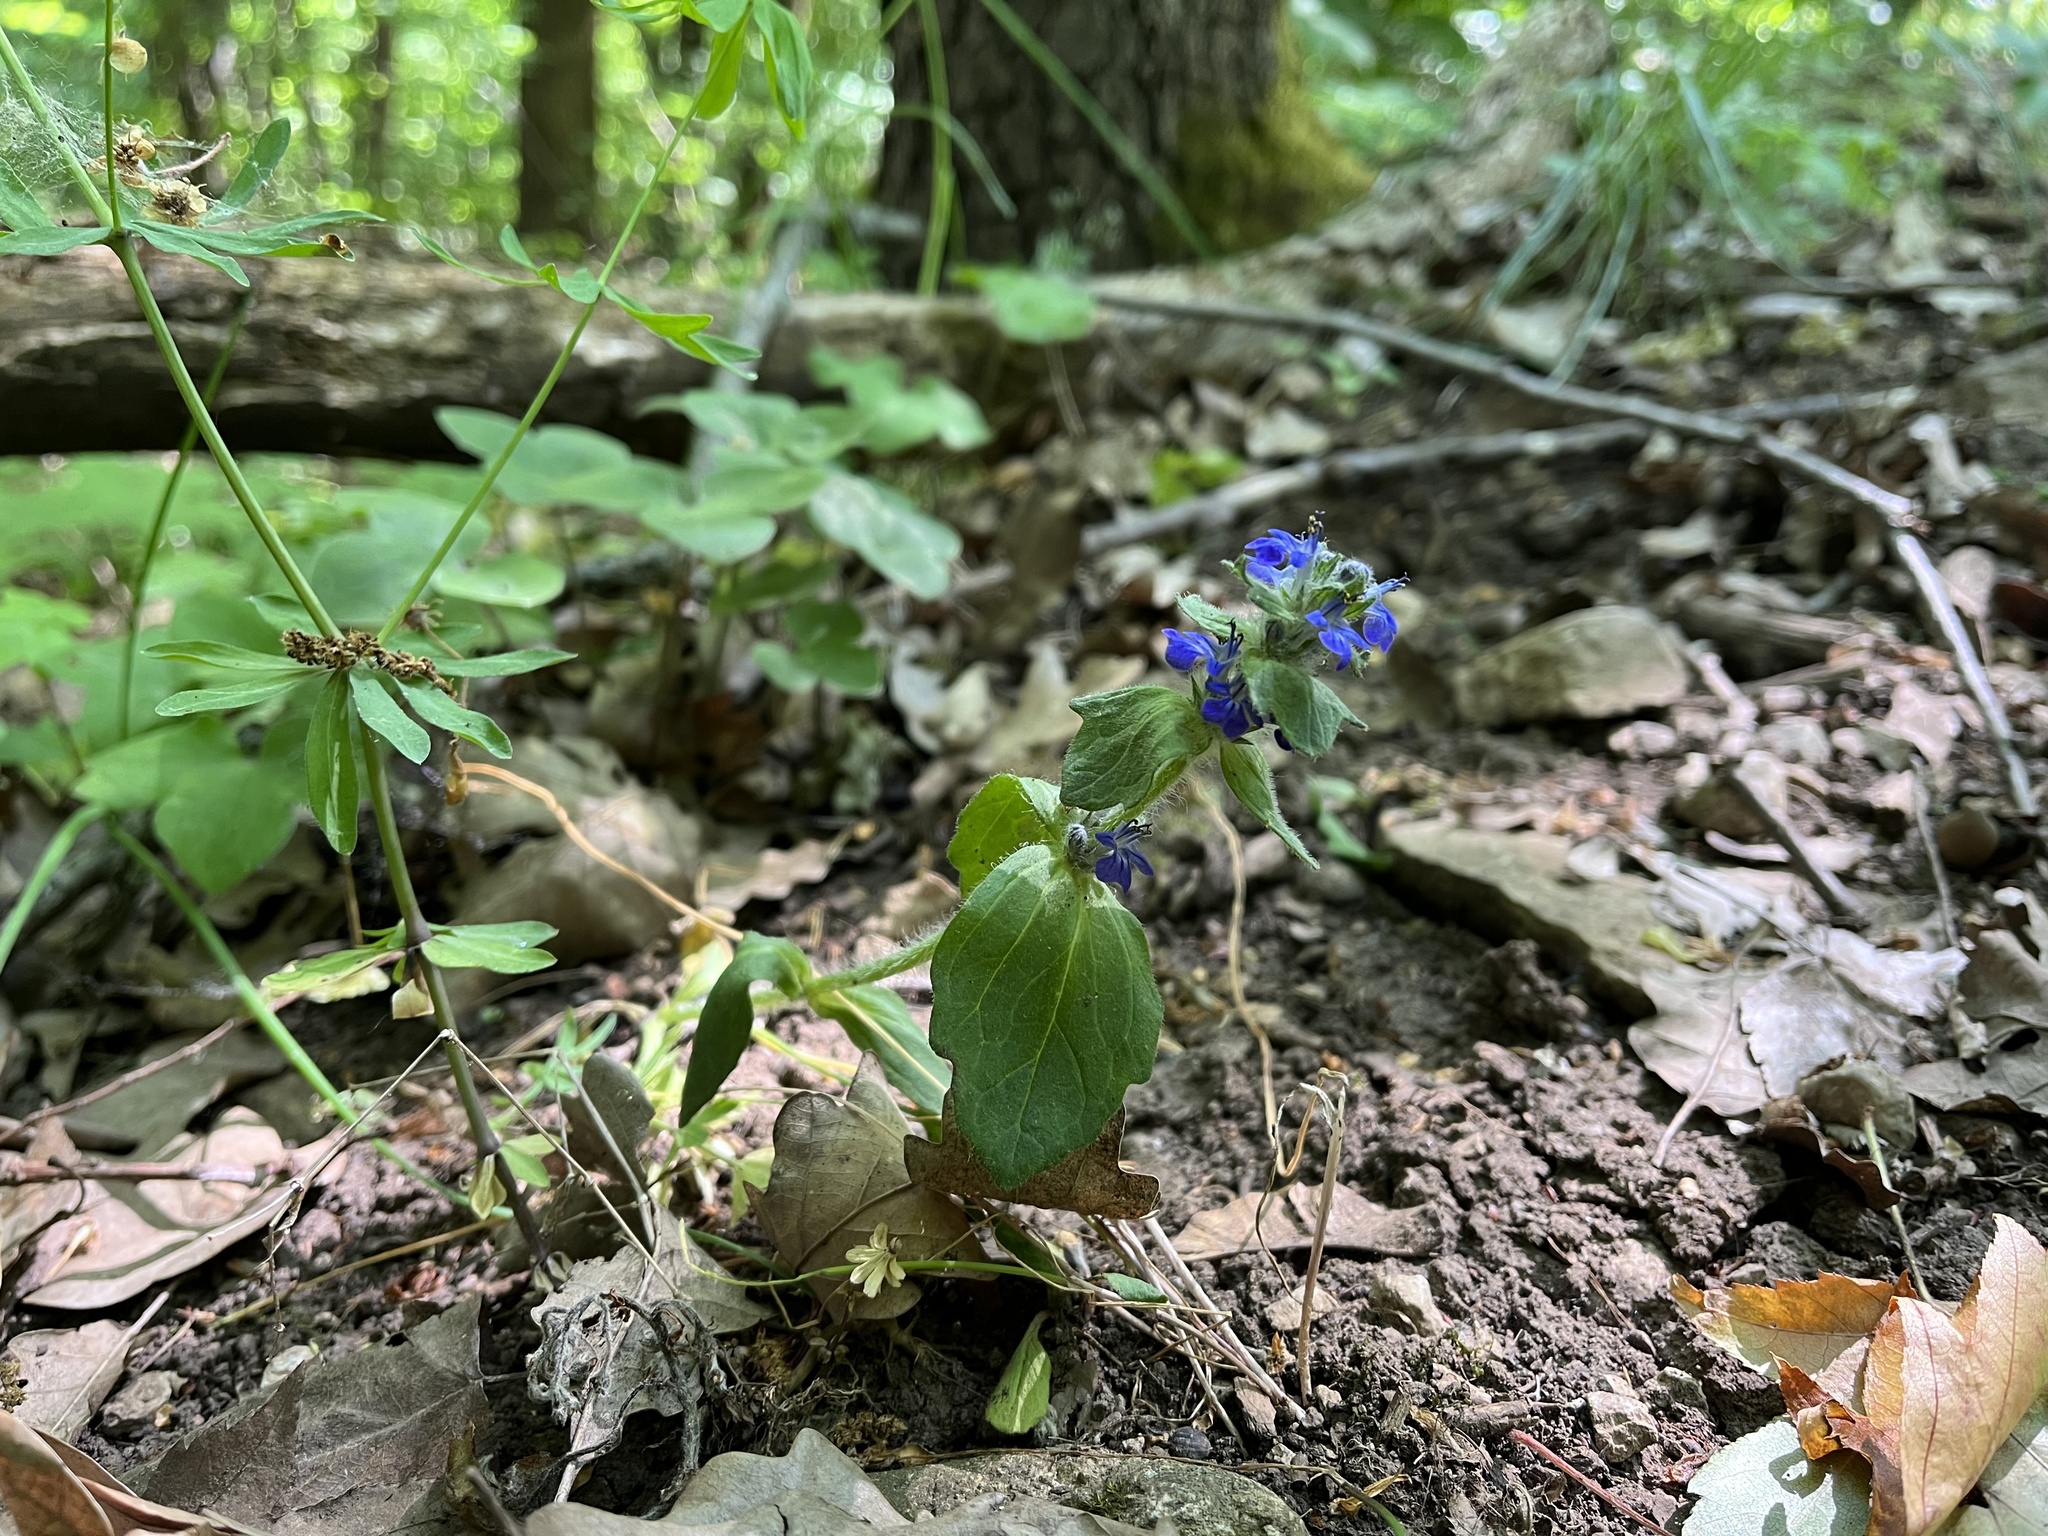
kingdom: Plantae
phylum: Tracheophyta
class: Magnoliopsida
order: Lamiales
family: Lamiaceae
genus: Ajuga
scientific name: Ajuga genevensis
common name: Blue bugle
